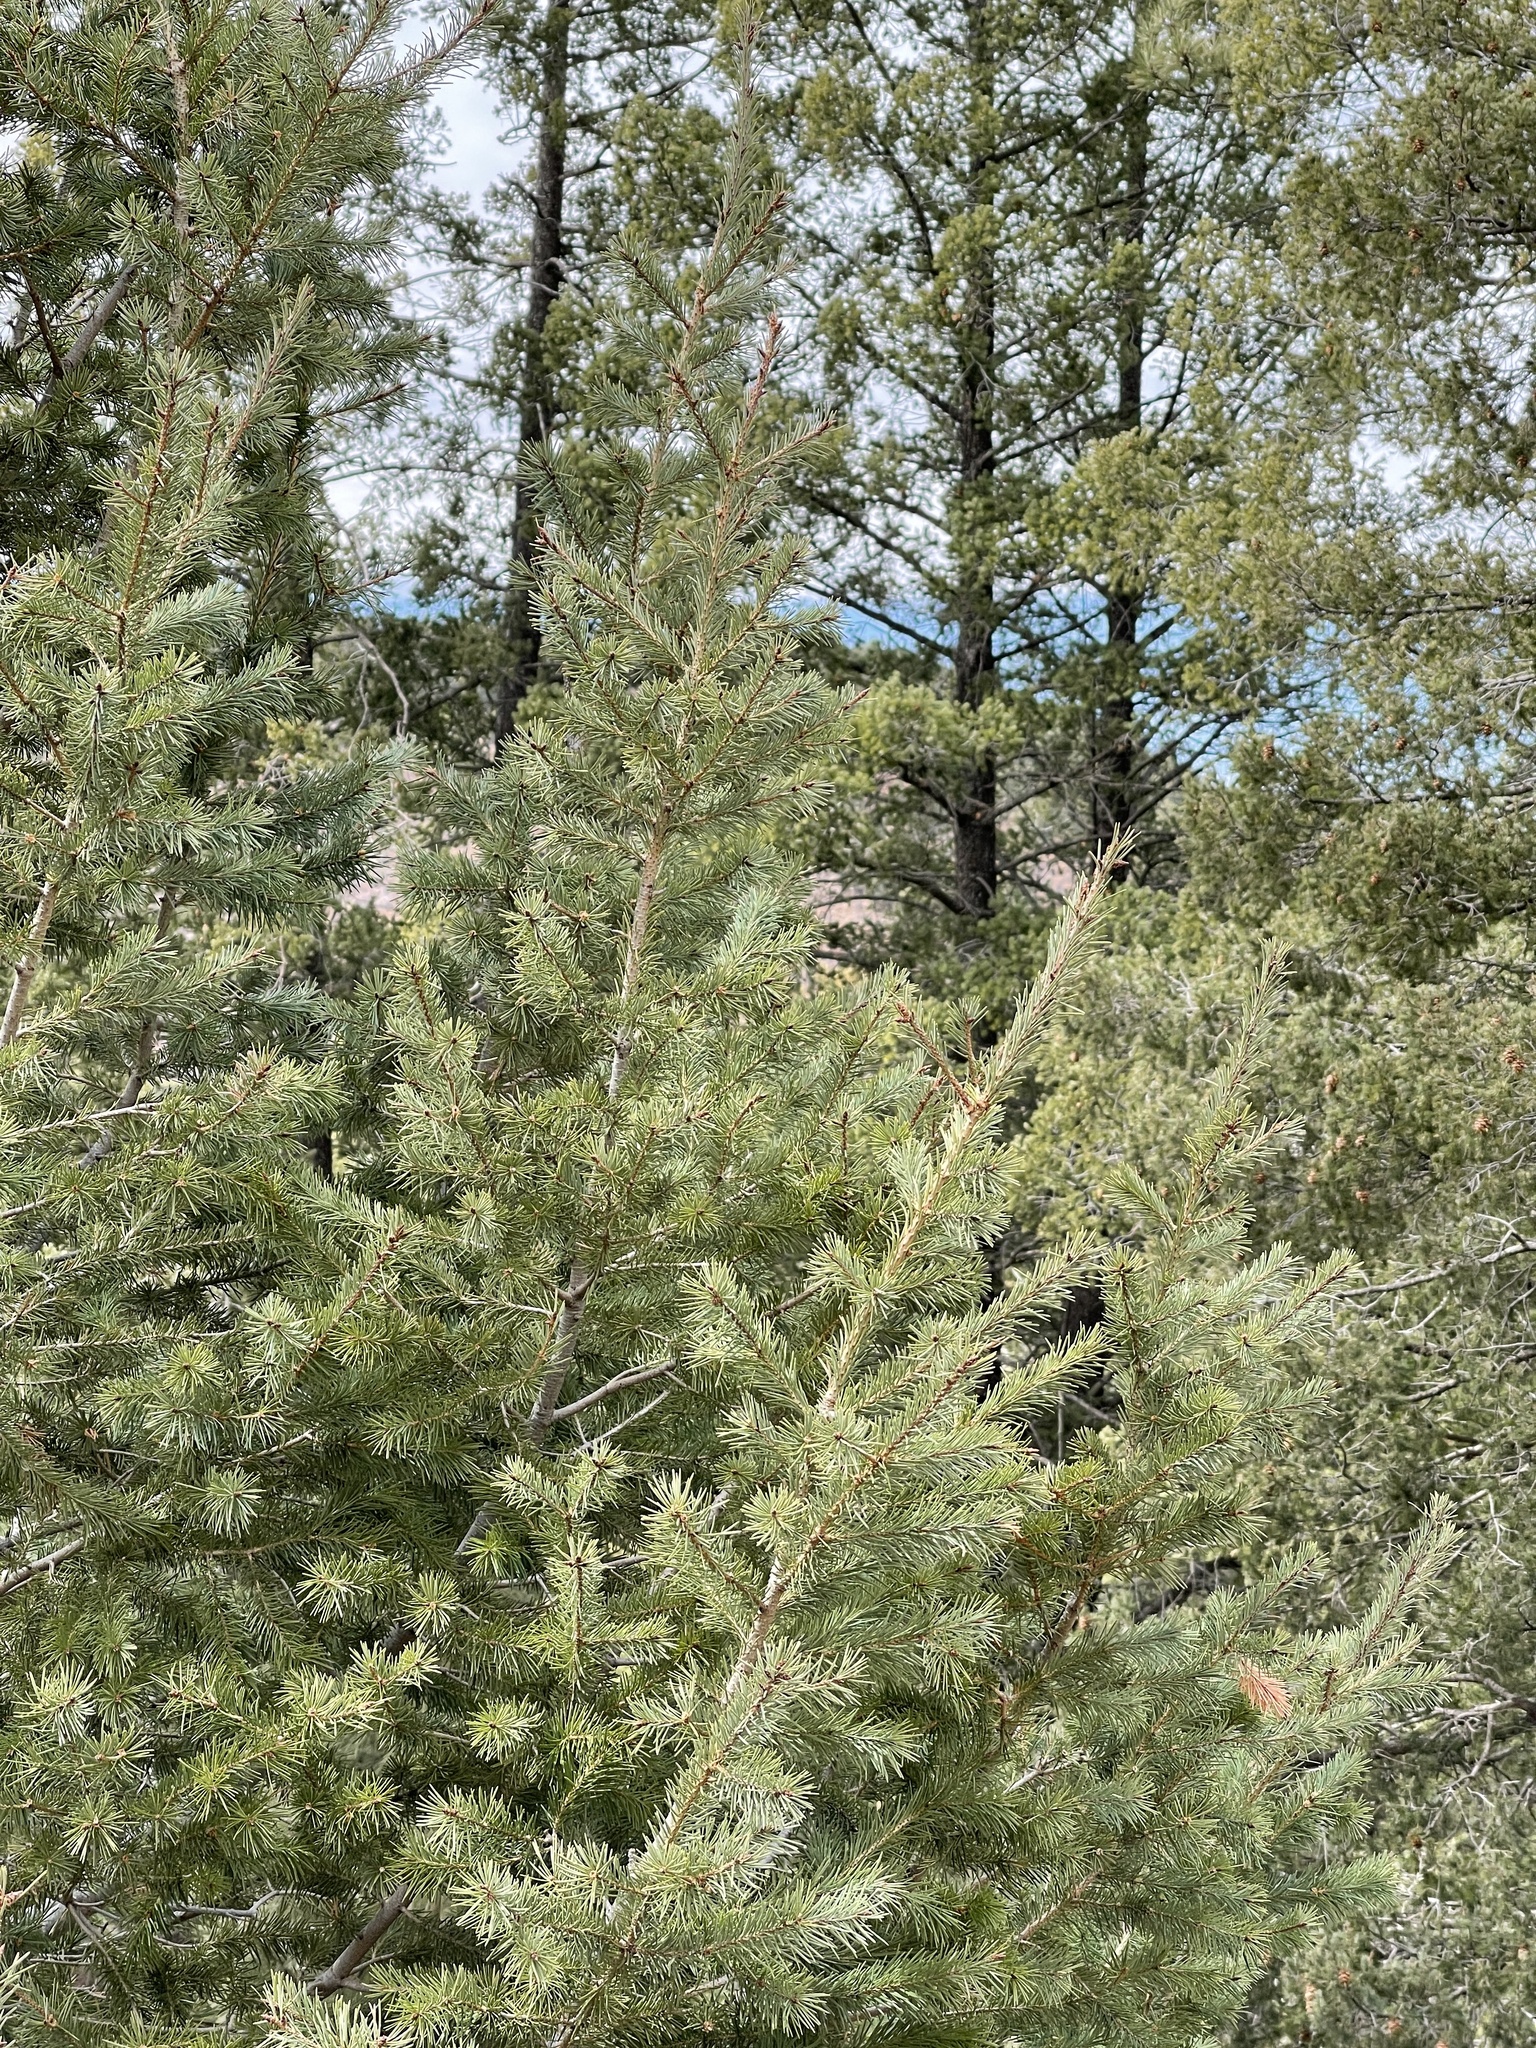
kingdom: Plantae
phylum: Tracheophyta
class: Pinopsida
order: Pinales
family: Pinaceae
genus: Pseudotsuga
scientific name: Pseudotsuga menziesii
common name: Douglas fir
